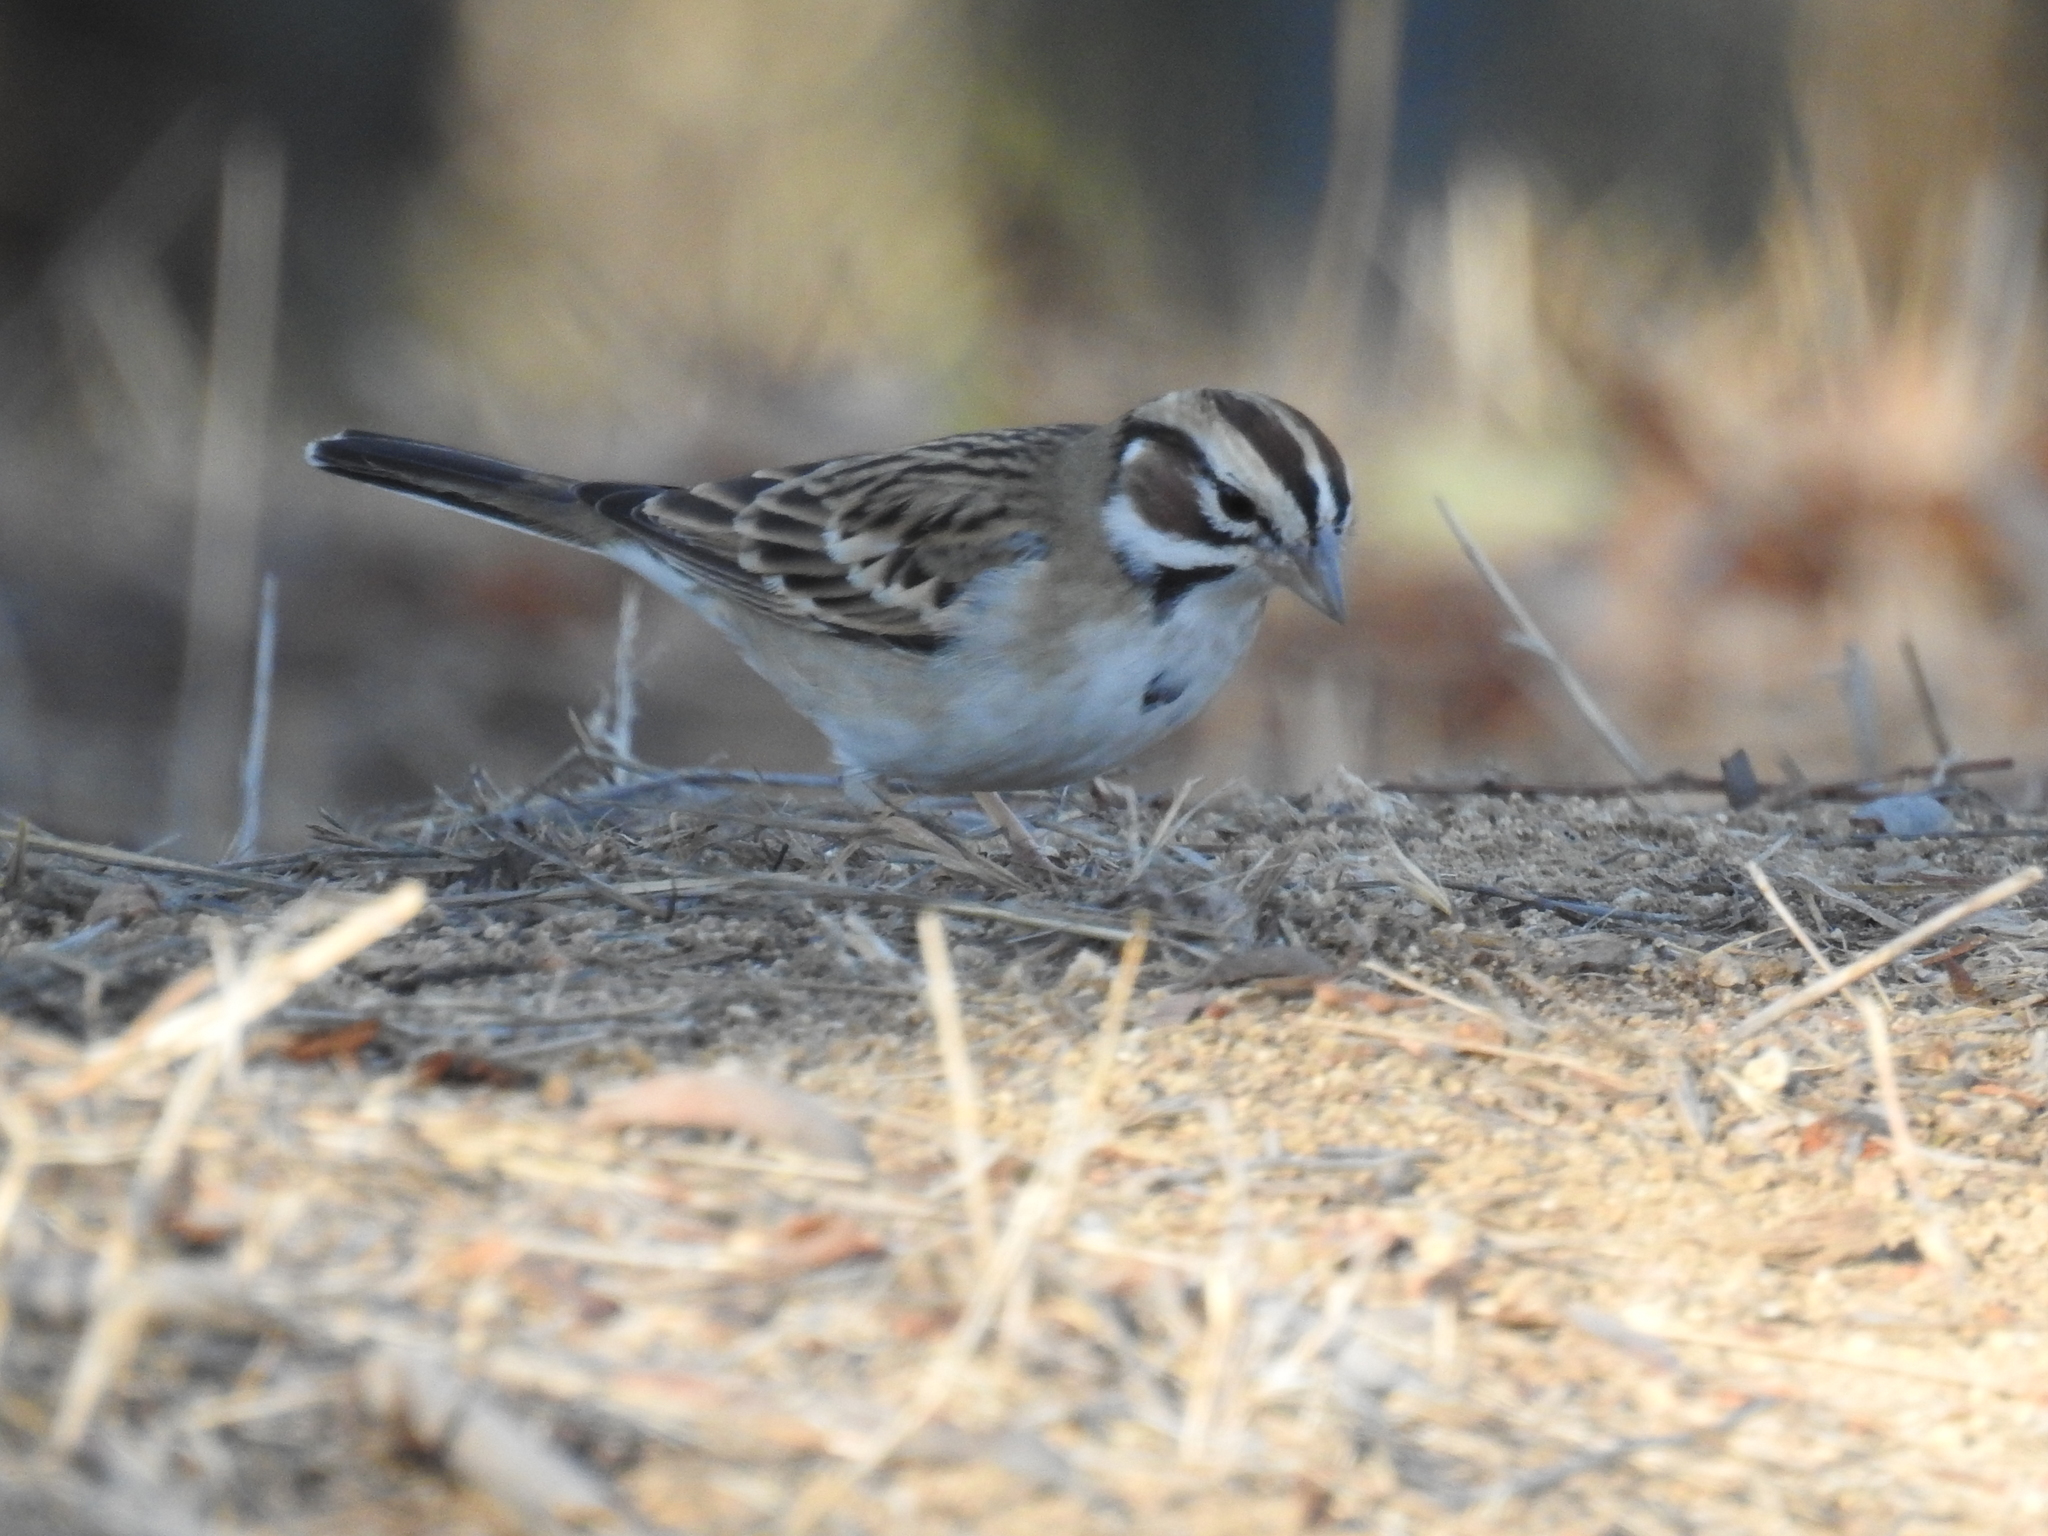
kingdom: Animalia
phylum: Chordata
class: Aves
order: Passeriformes
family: Passerellidae
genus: Chondestes
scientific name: Chondestes grammacus
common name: Lark sparrow
